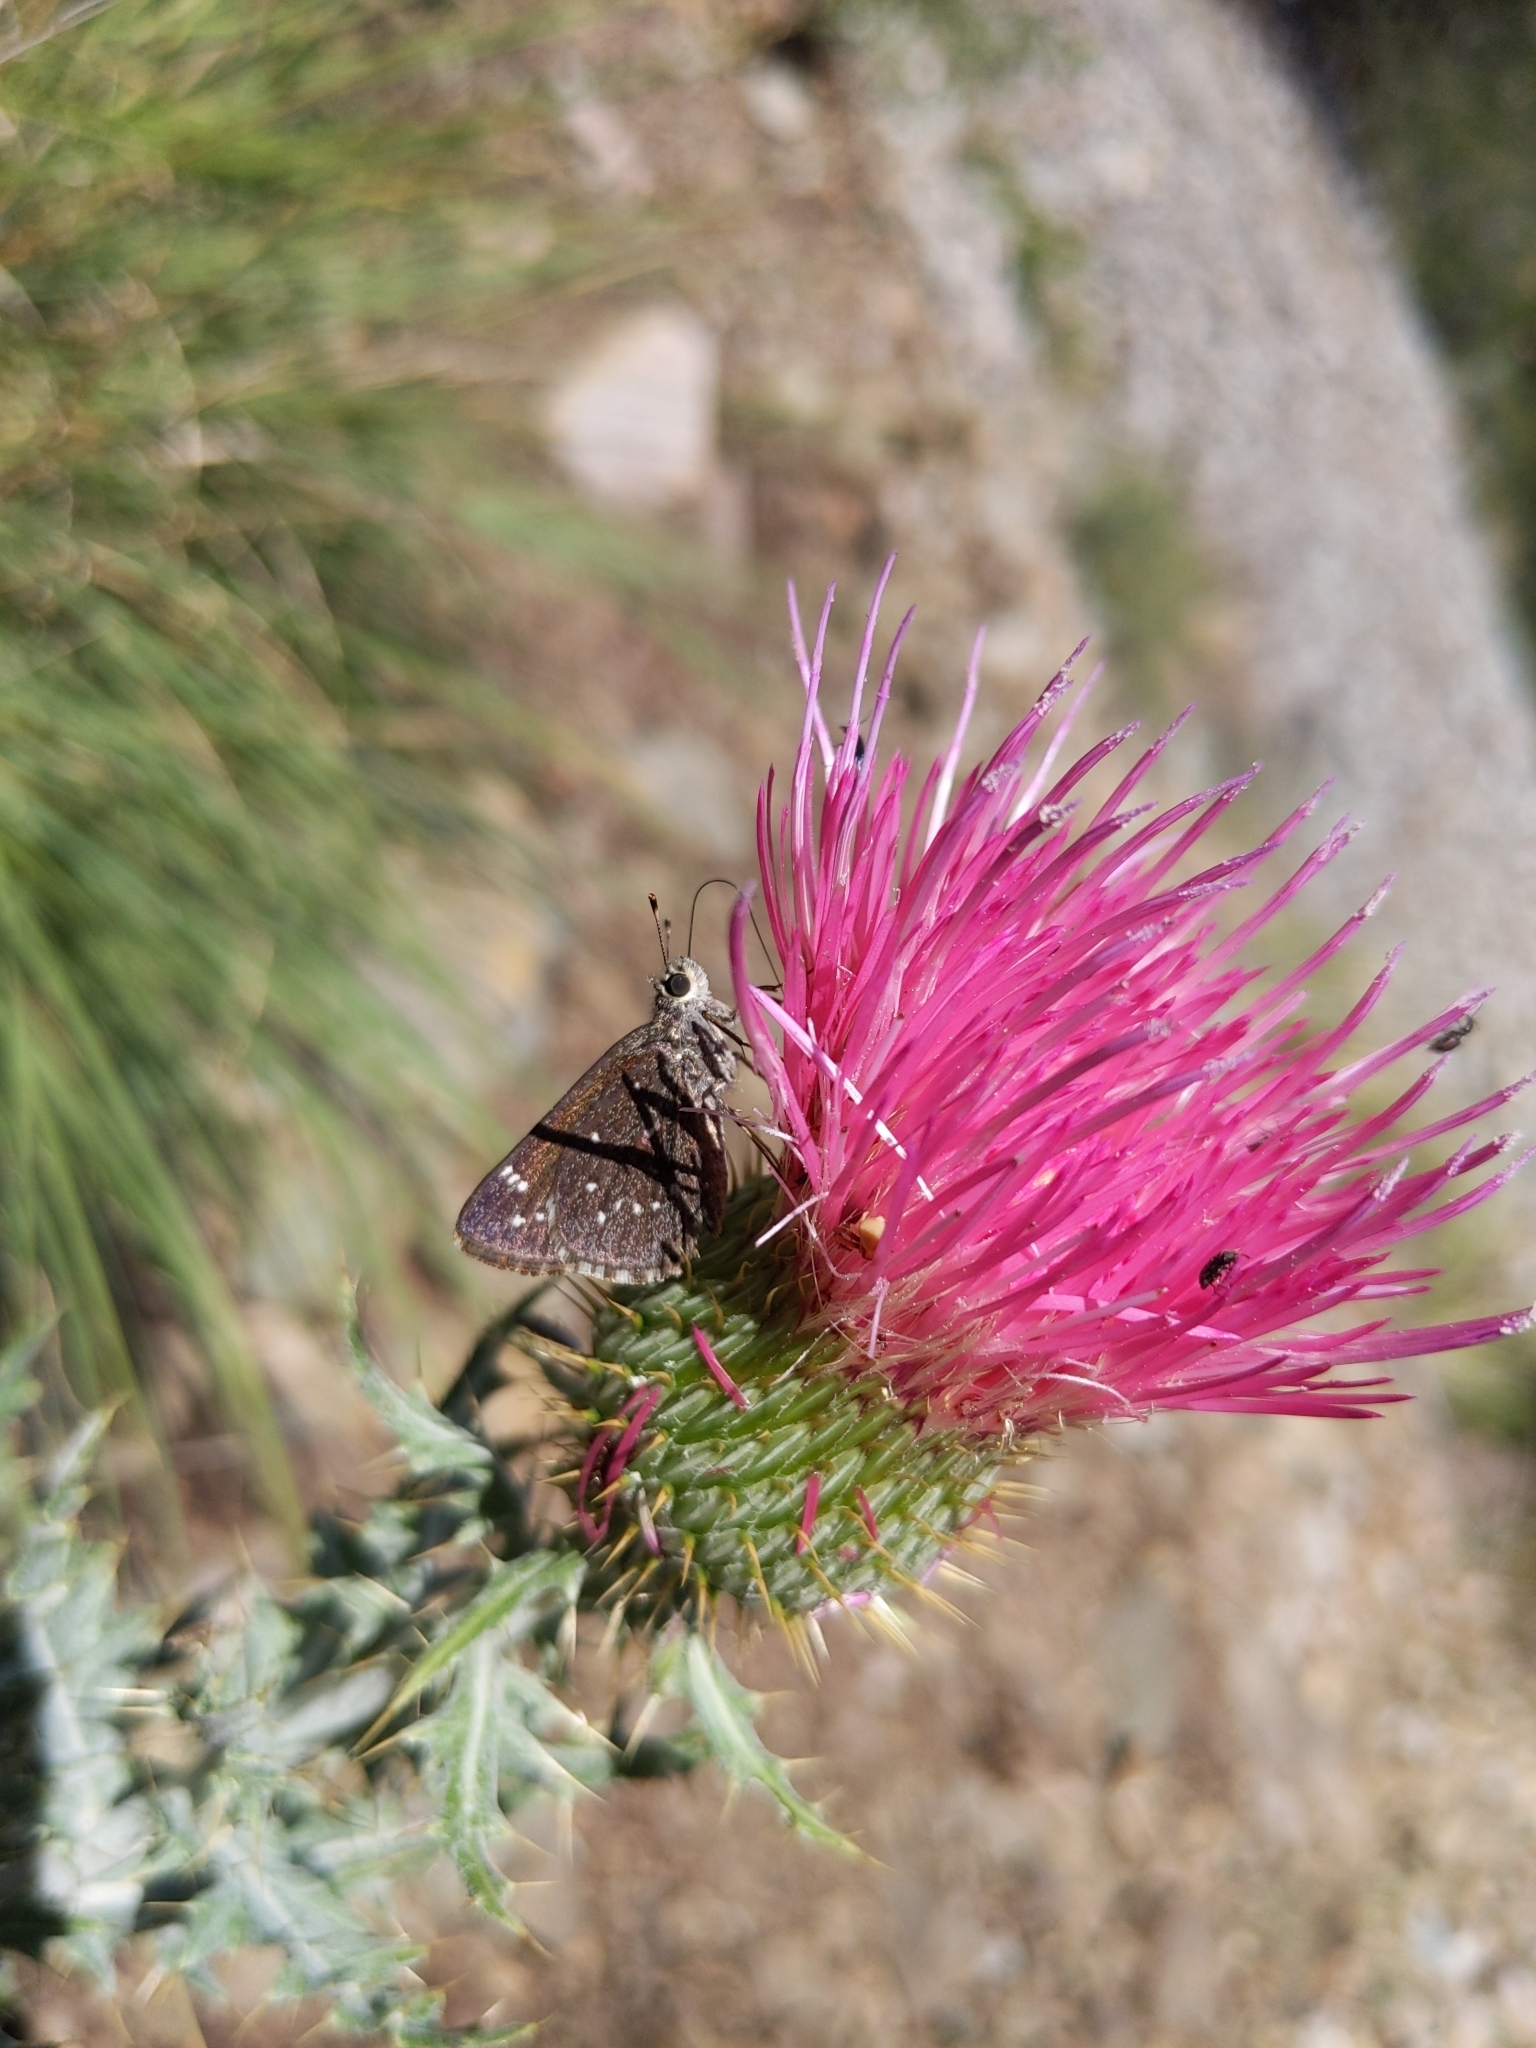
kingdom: Animalia
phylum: Arthropoda
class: Insecta
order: Lepidoptera
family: Hesperiidae
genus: Mastor
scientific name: Mastor exoteria
